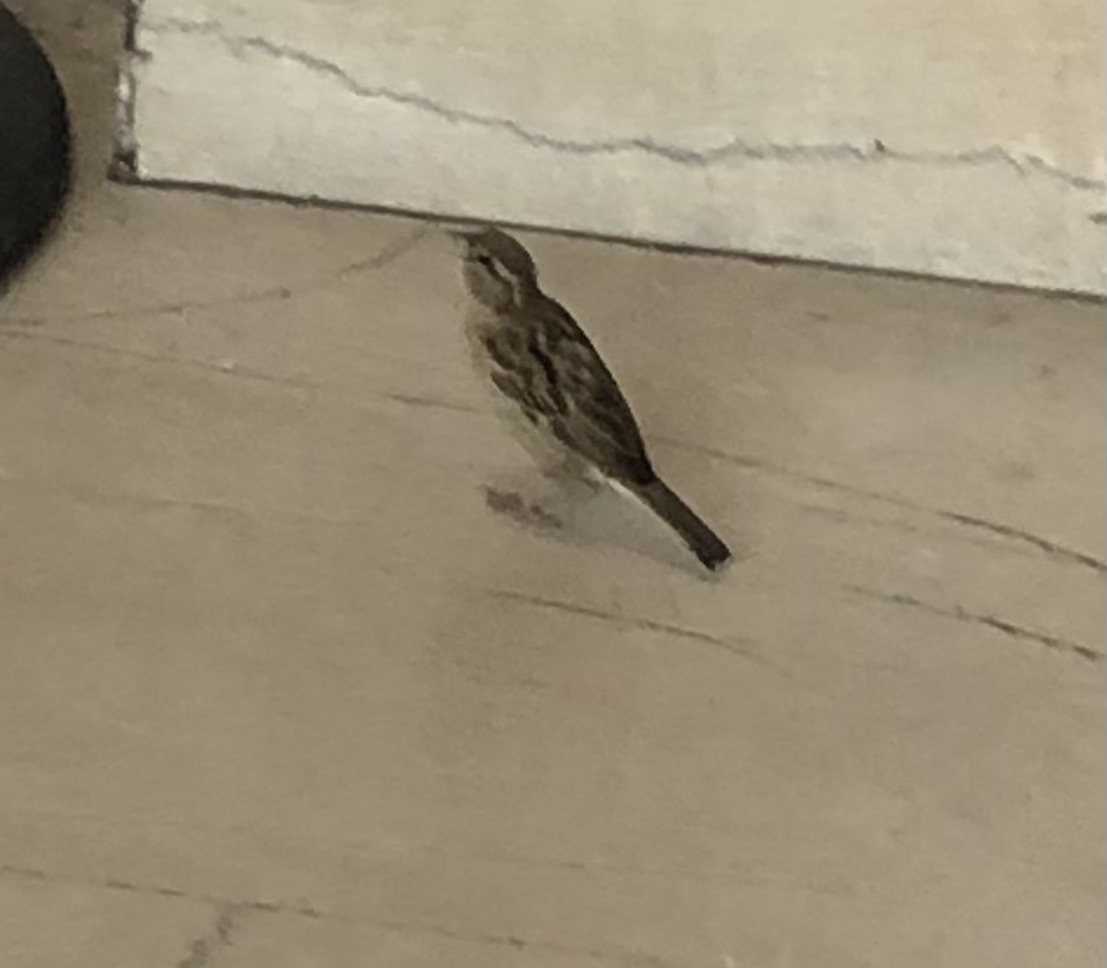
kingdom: Animalia
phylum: Chordata
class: Aves
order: Passeriformes
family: Passeridae
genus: Passer
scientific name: Passer domesticus
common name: House sparrow
